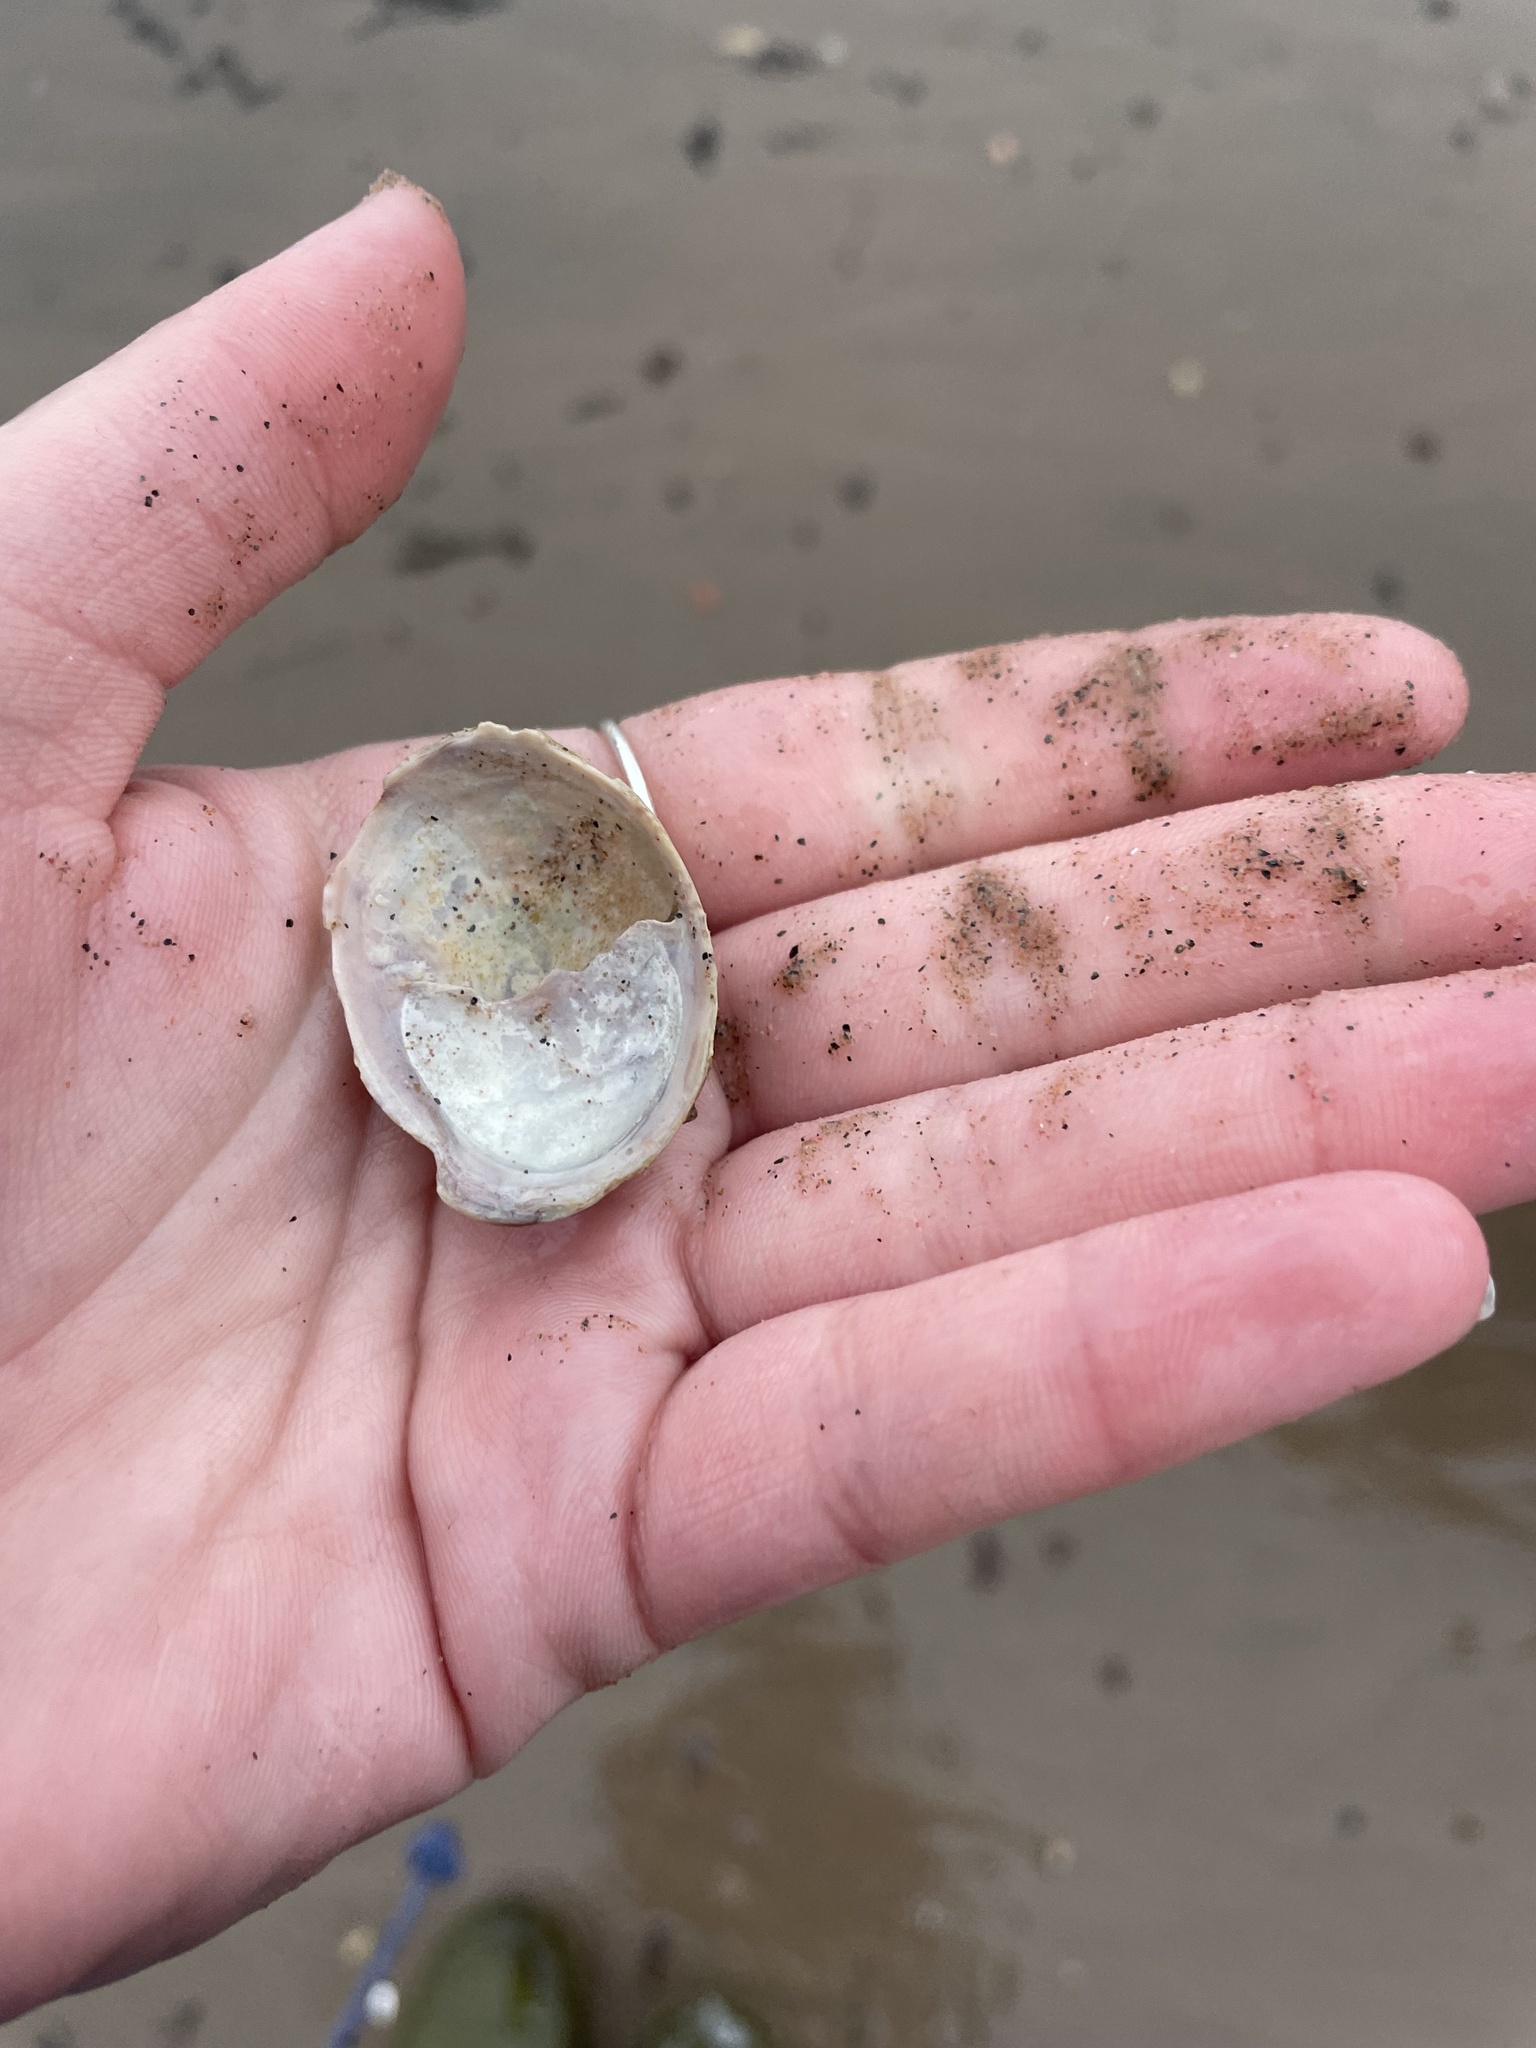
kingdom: Animalia
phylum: Mollusca
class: Gastropoda
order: Littorinimorpha
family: Calyptraeidae
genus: Crepidula
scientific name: Crepidula fornicata
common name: Slipper limpet
